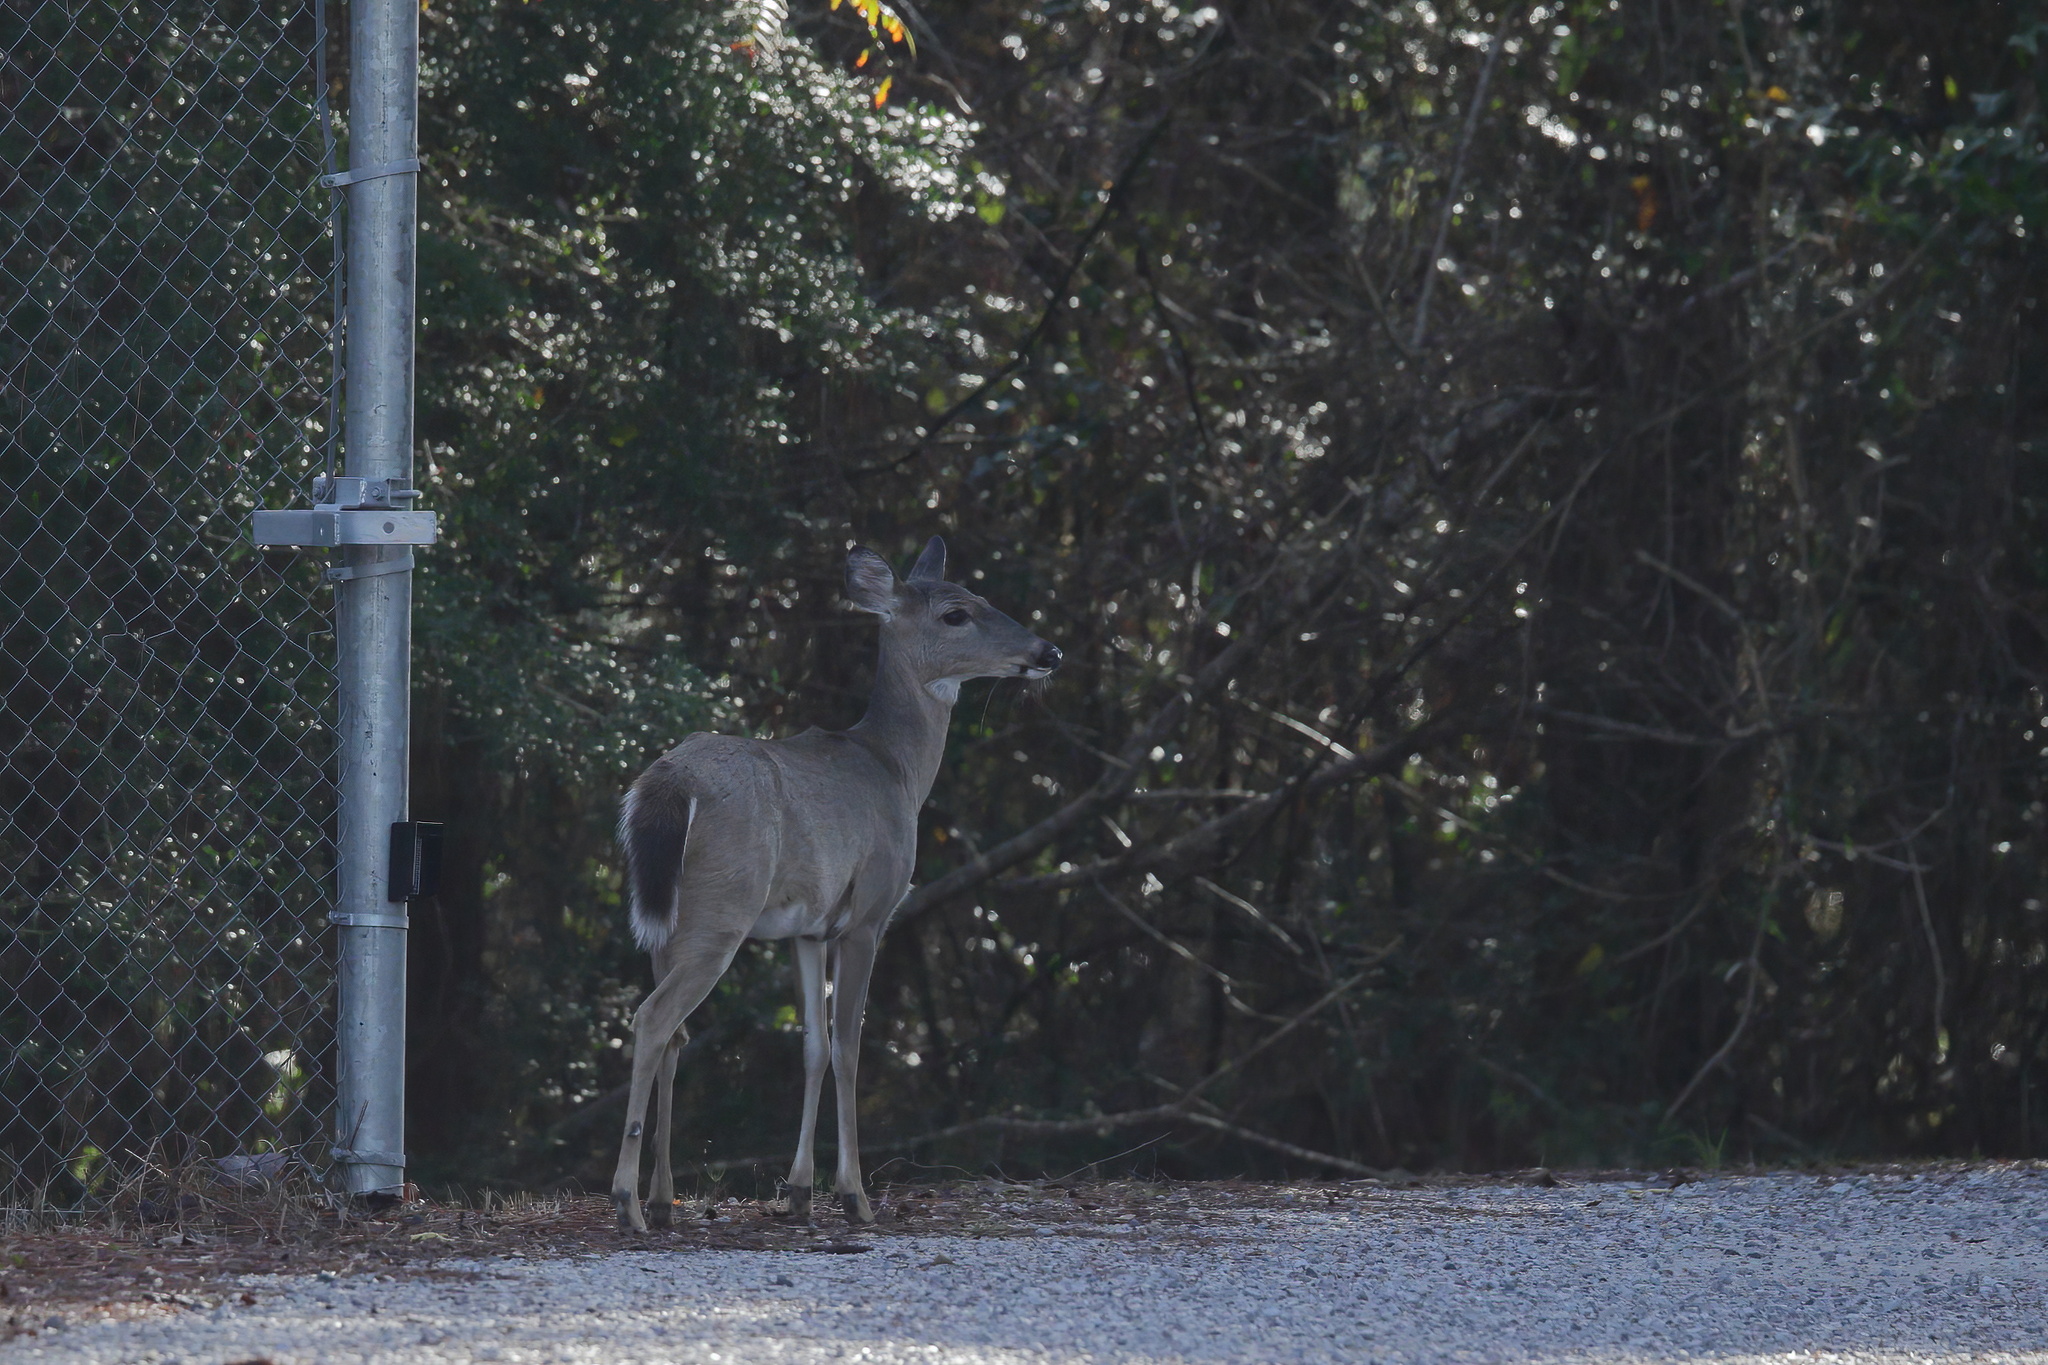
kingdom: Animalia
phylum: Chordata
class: Mammalia
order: Artiodactyla
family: Cervidae
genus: Odocoileus
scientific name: Odocoileus virginianus
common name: White-tailed deer
